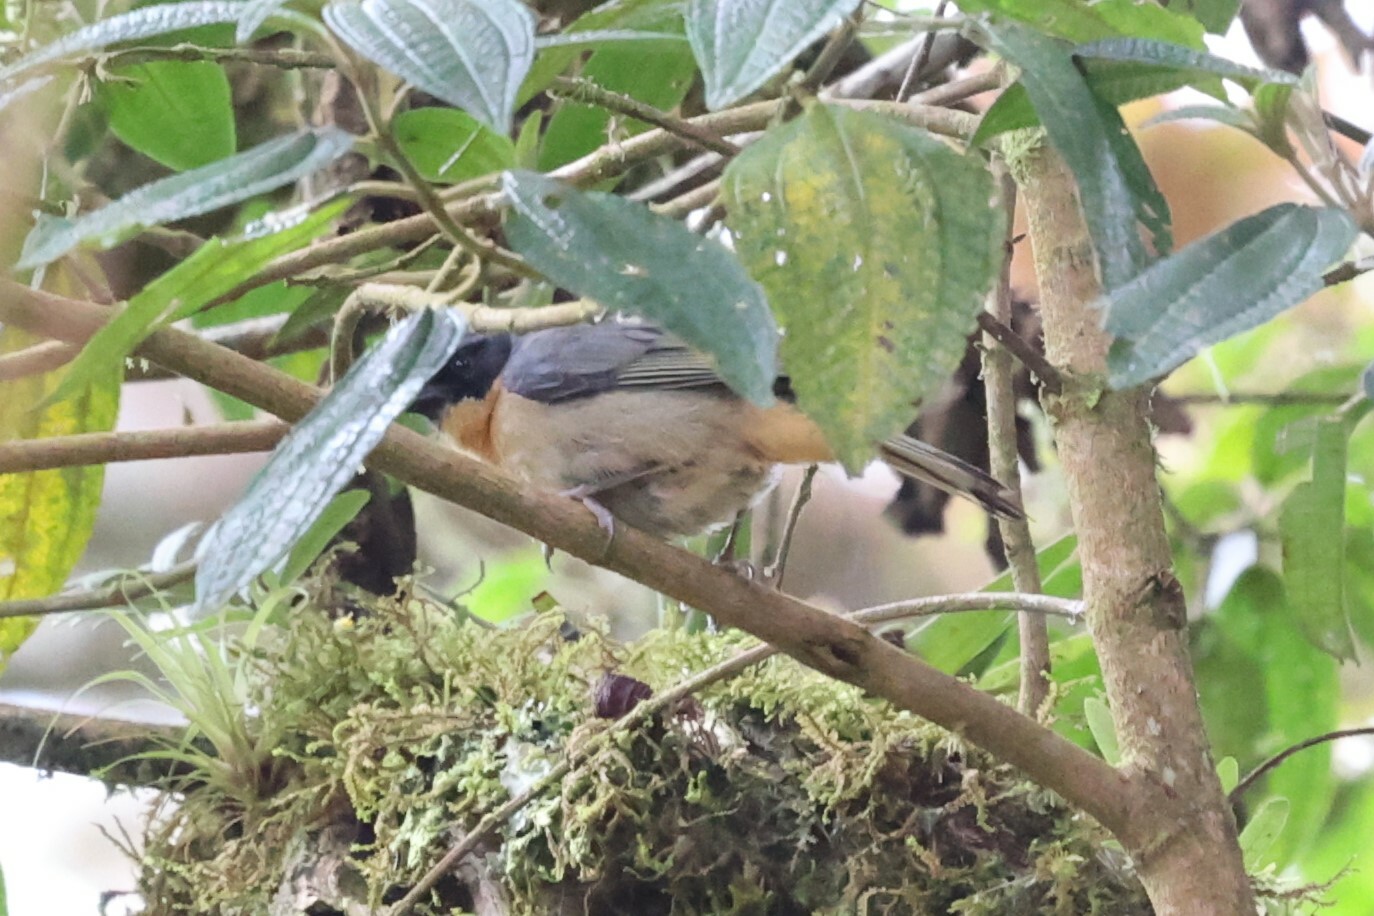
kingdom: Animalia
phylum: Chordata
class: Aves
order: Passeriformes
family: Thraupidae
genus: Sphenopsis
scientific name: Sphenopsis melanotis
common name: Black-eared hemispingus
